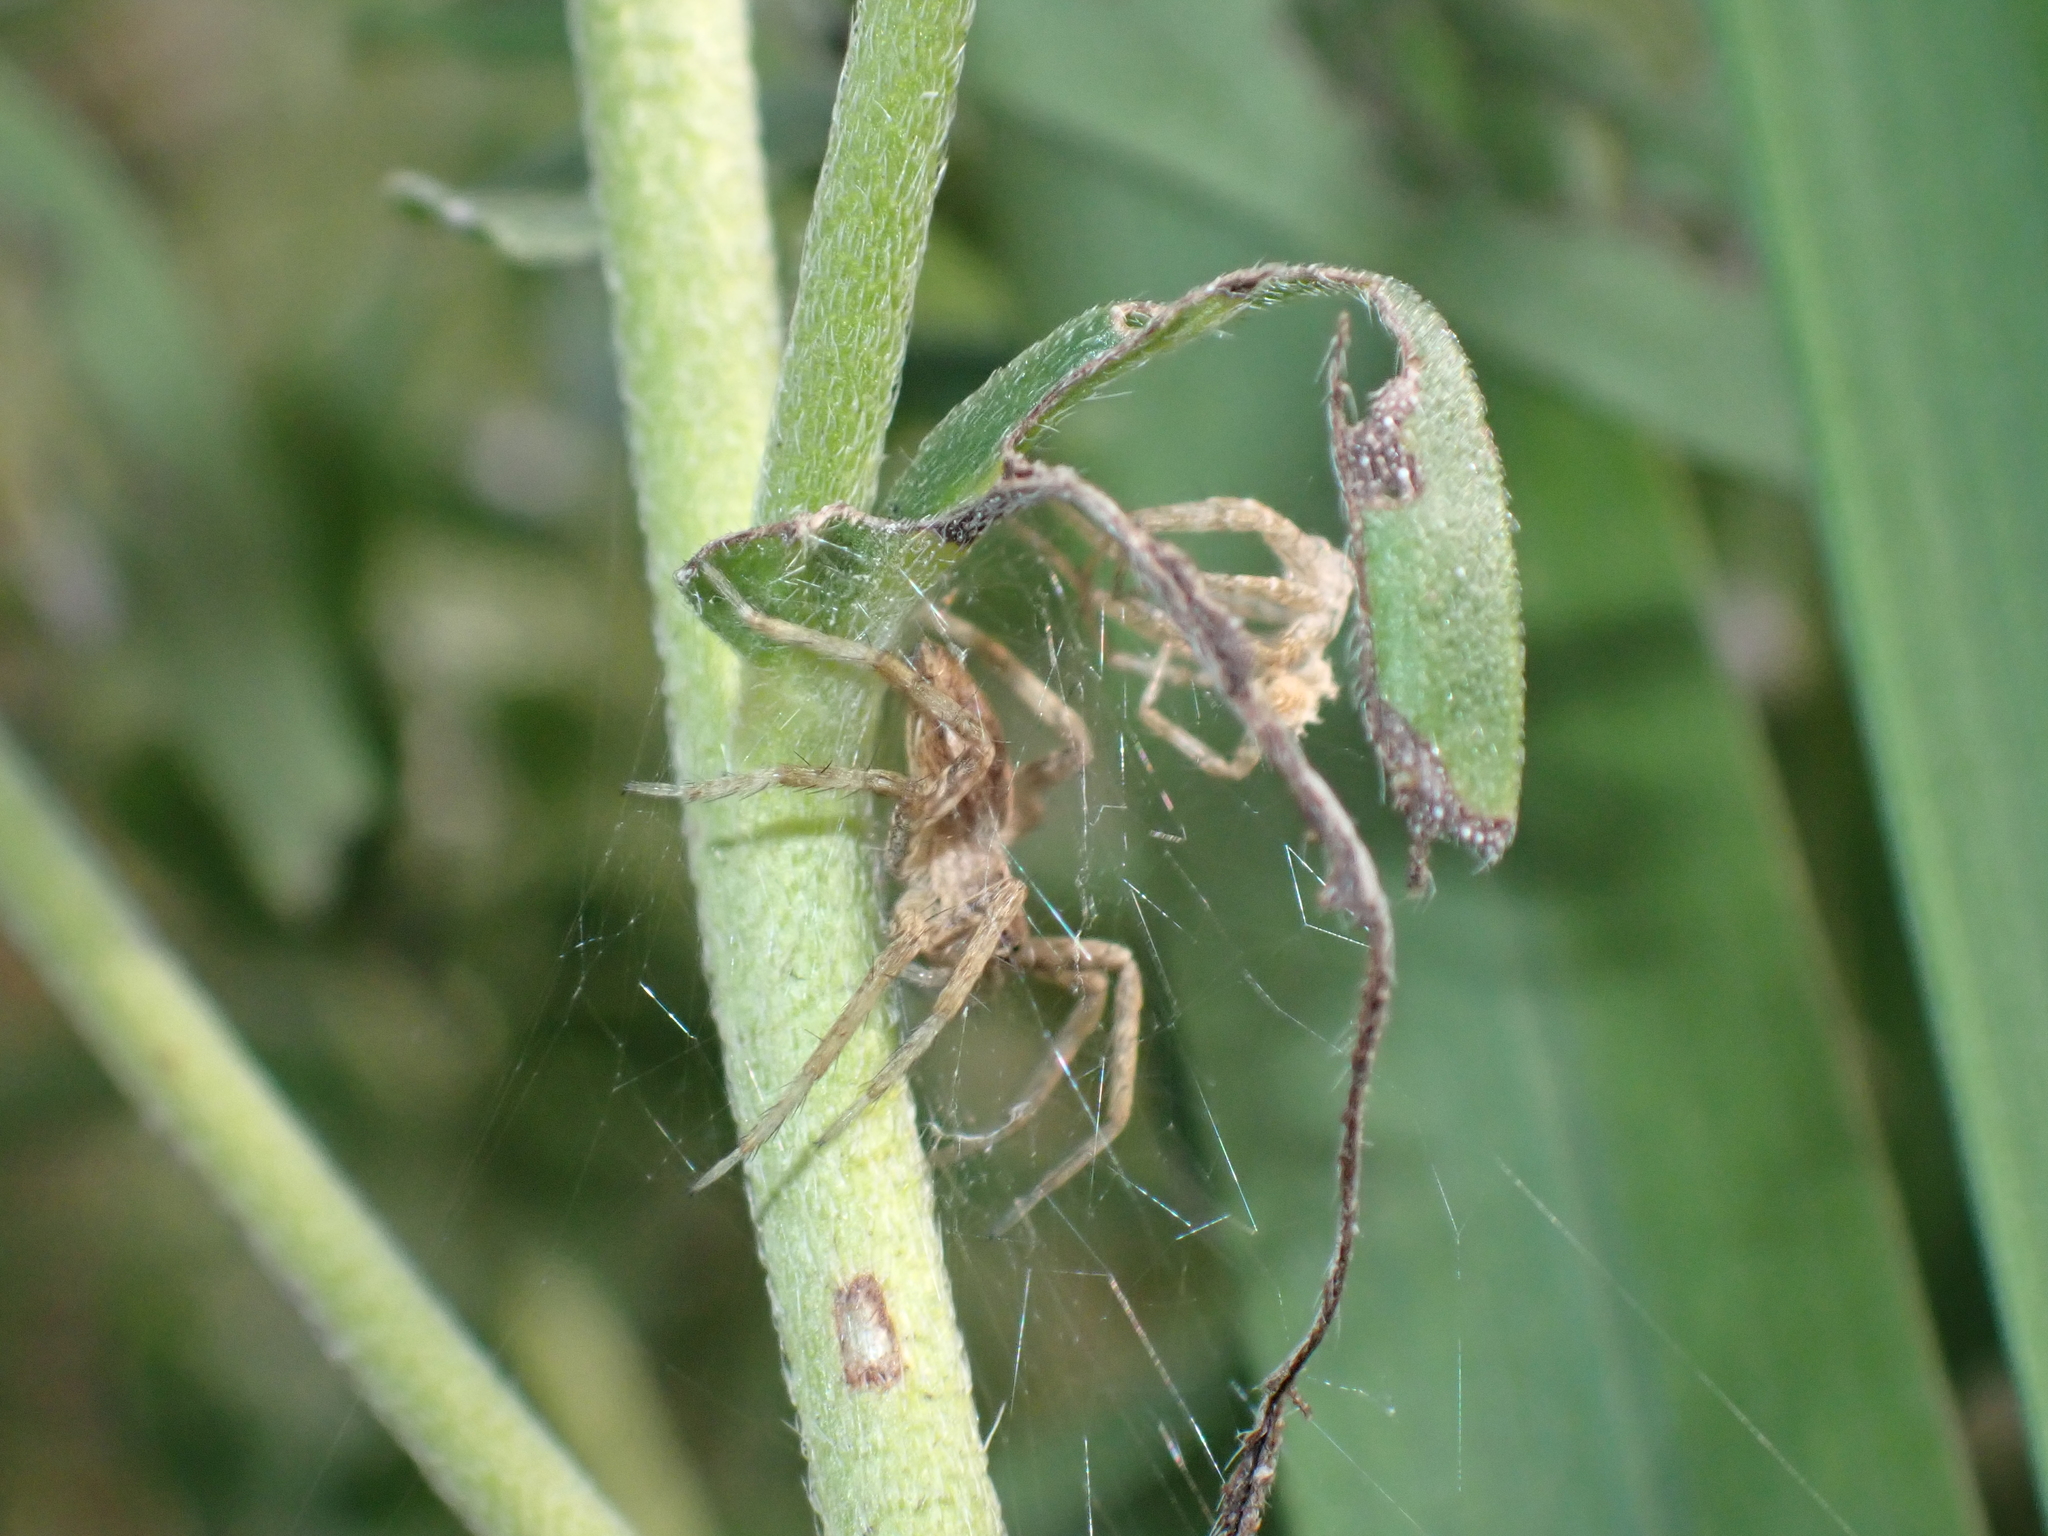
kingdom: Animalia
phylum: Arthropoda
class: Arachnida
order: Araneae
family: Pisauridae
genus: Pisaura
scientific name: Pisaura mirabilis
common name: Tent spider
